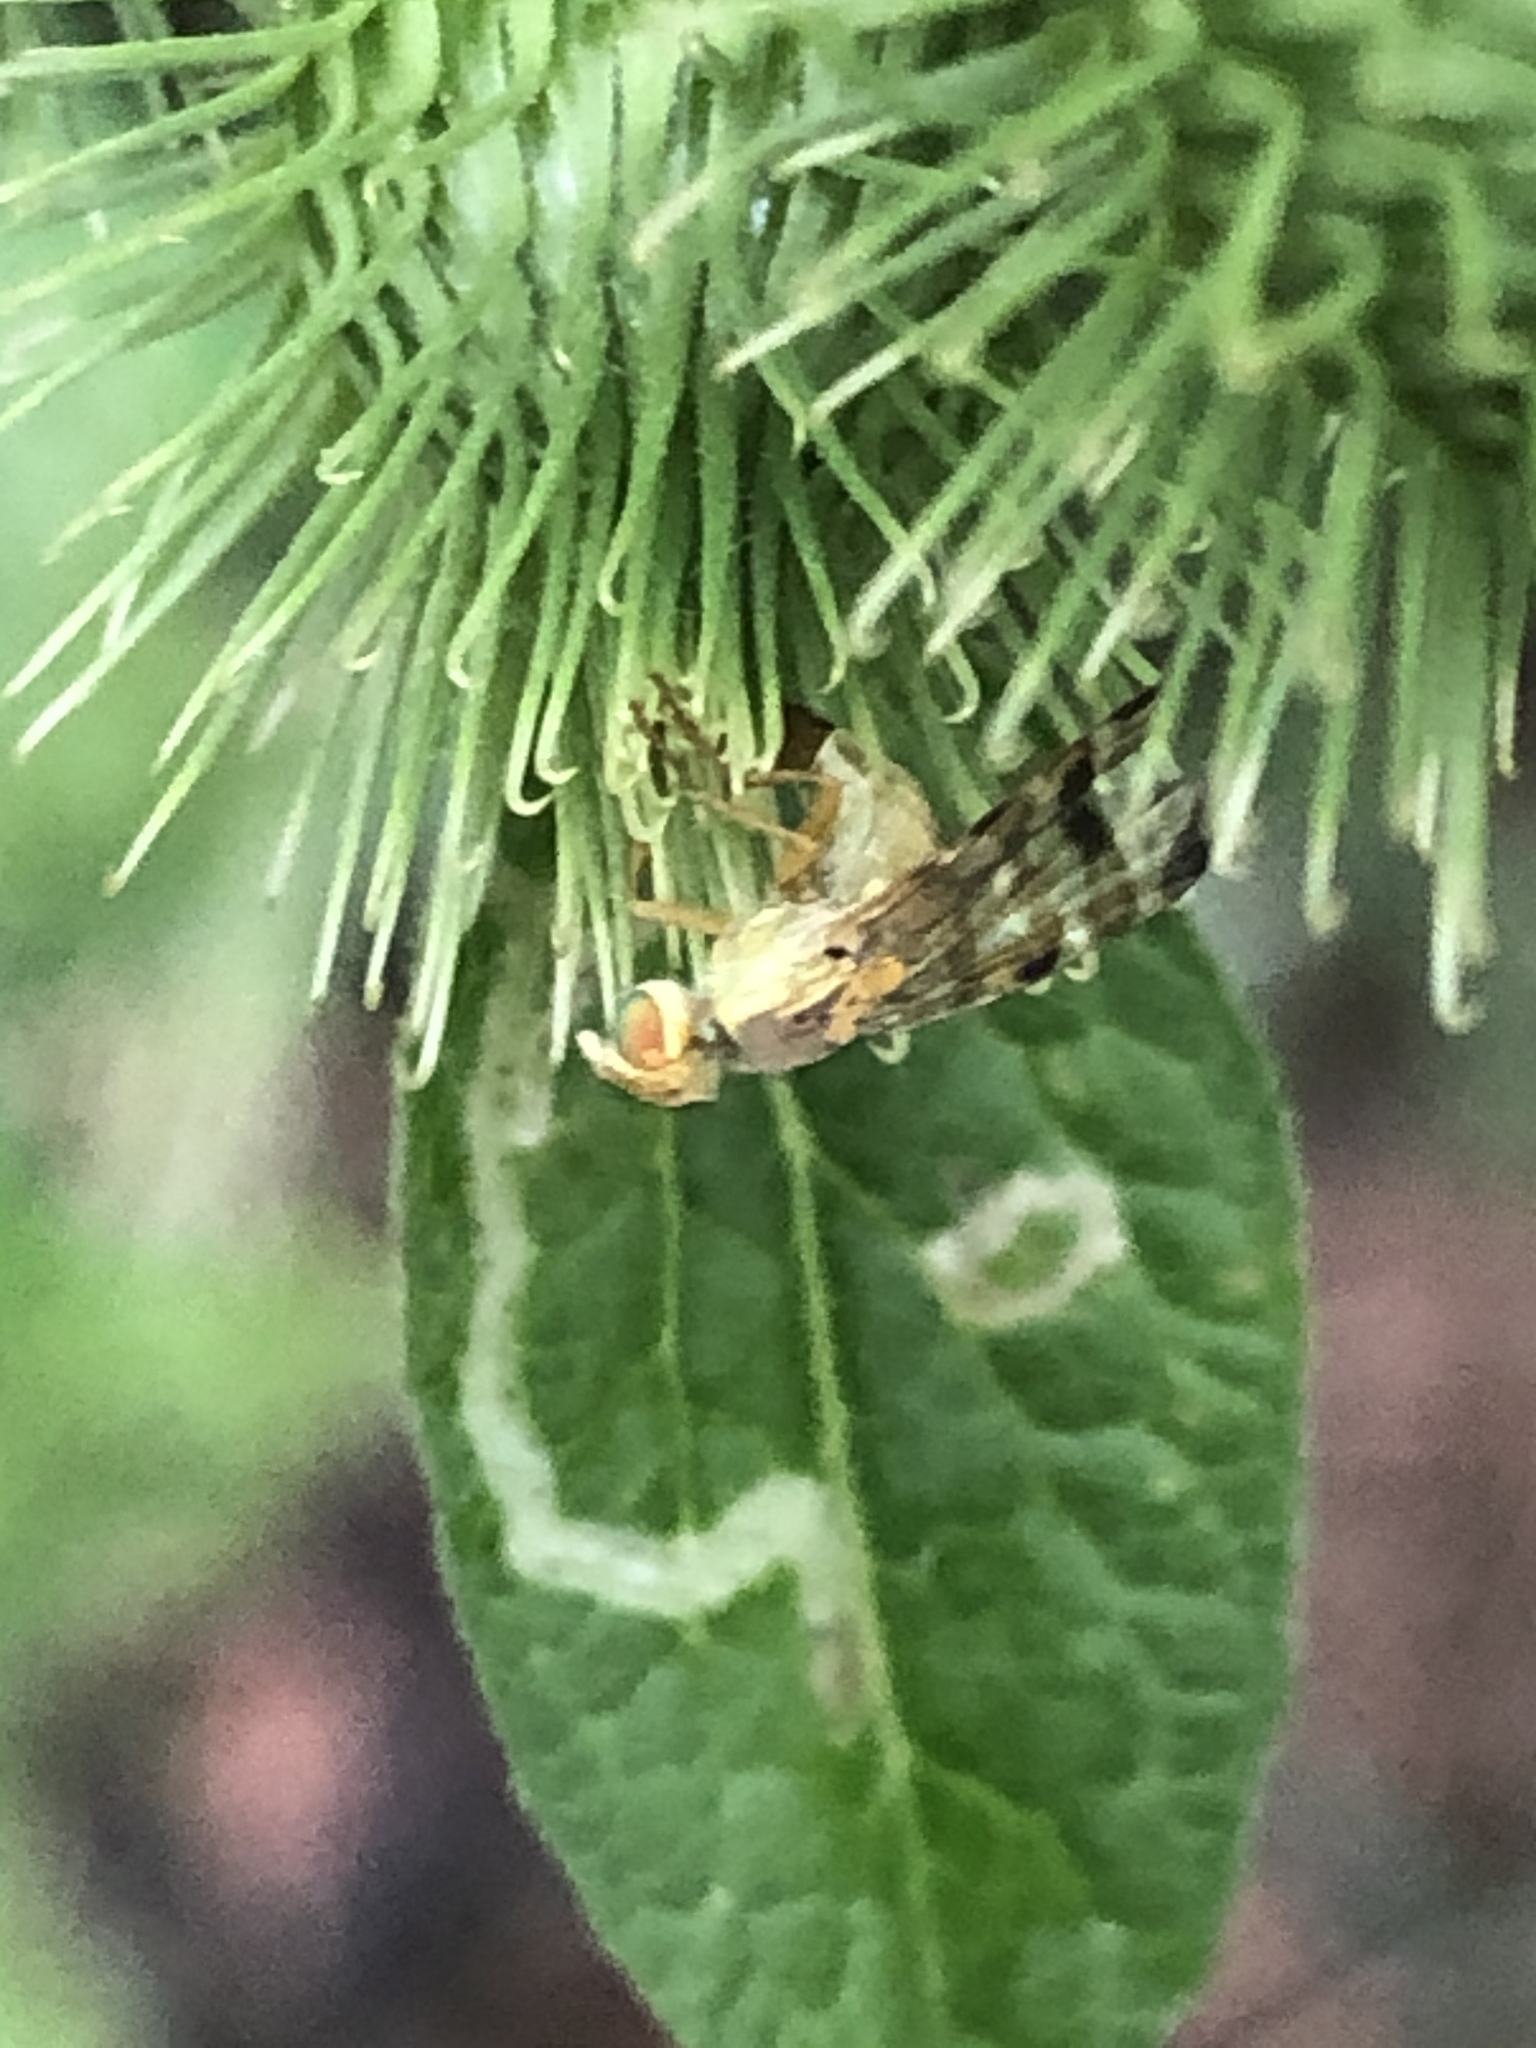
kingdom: Animalia
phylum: Arthropoda
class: Insecta
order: Diptera
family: Tephritidae
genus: Terellia
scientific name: Terellia tussilaginis
